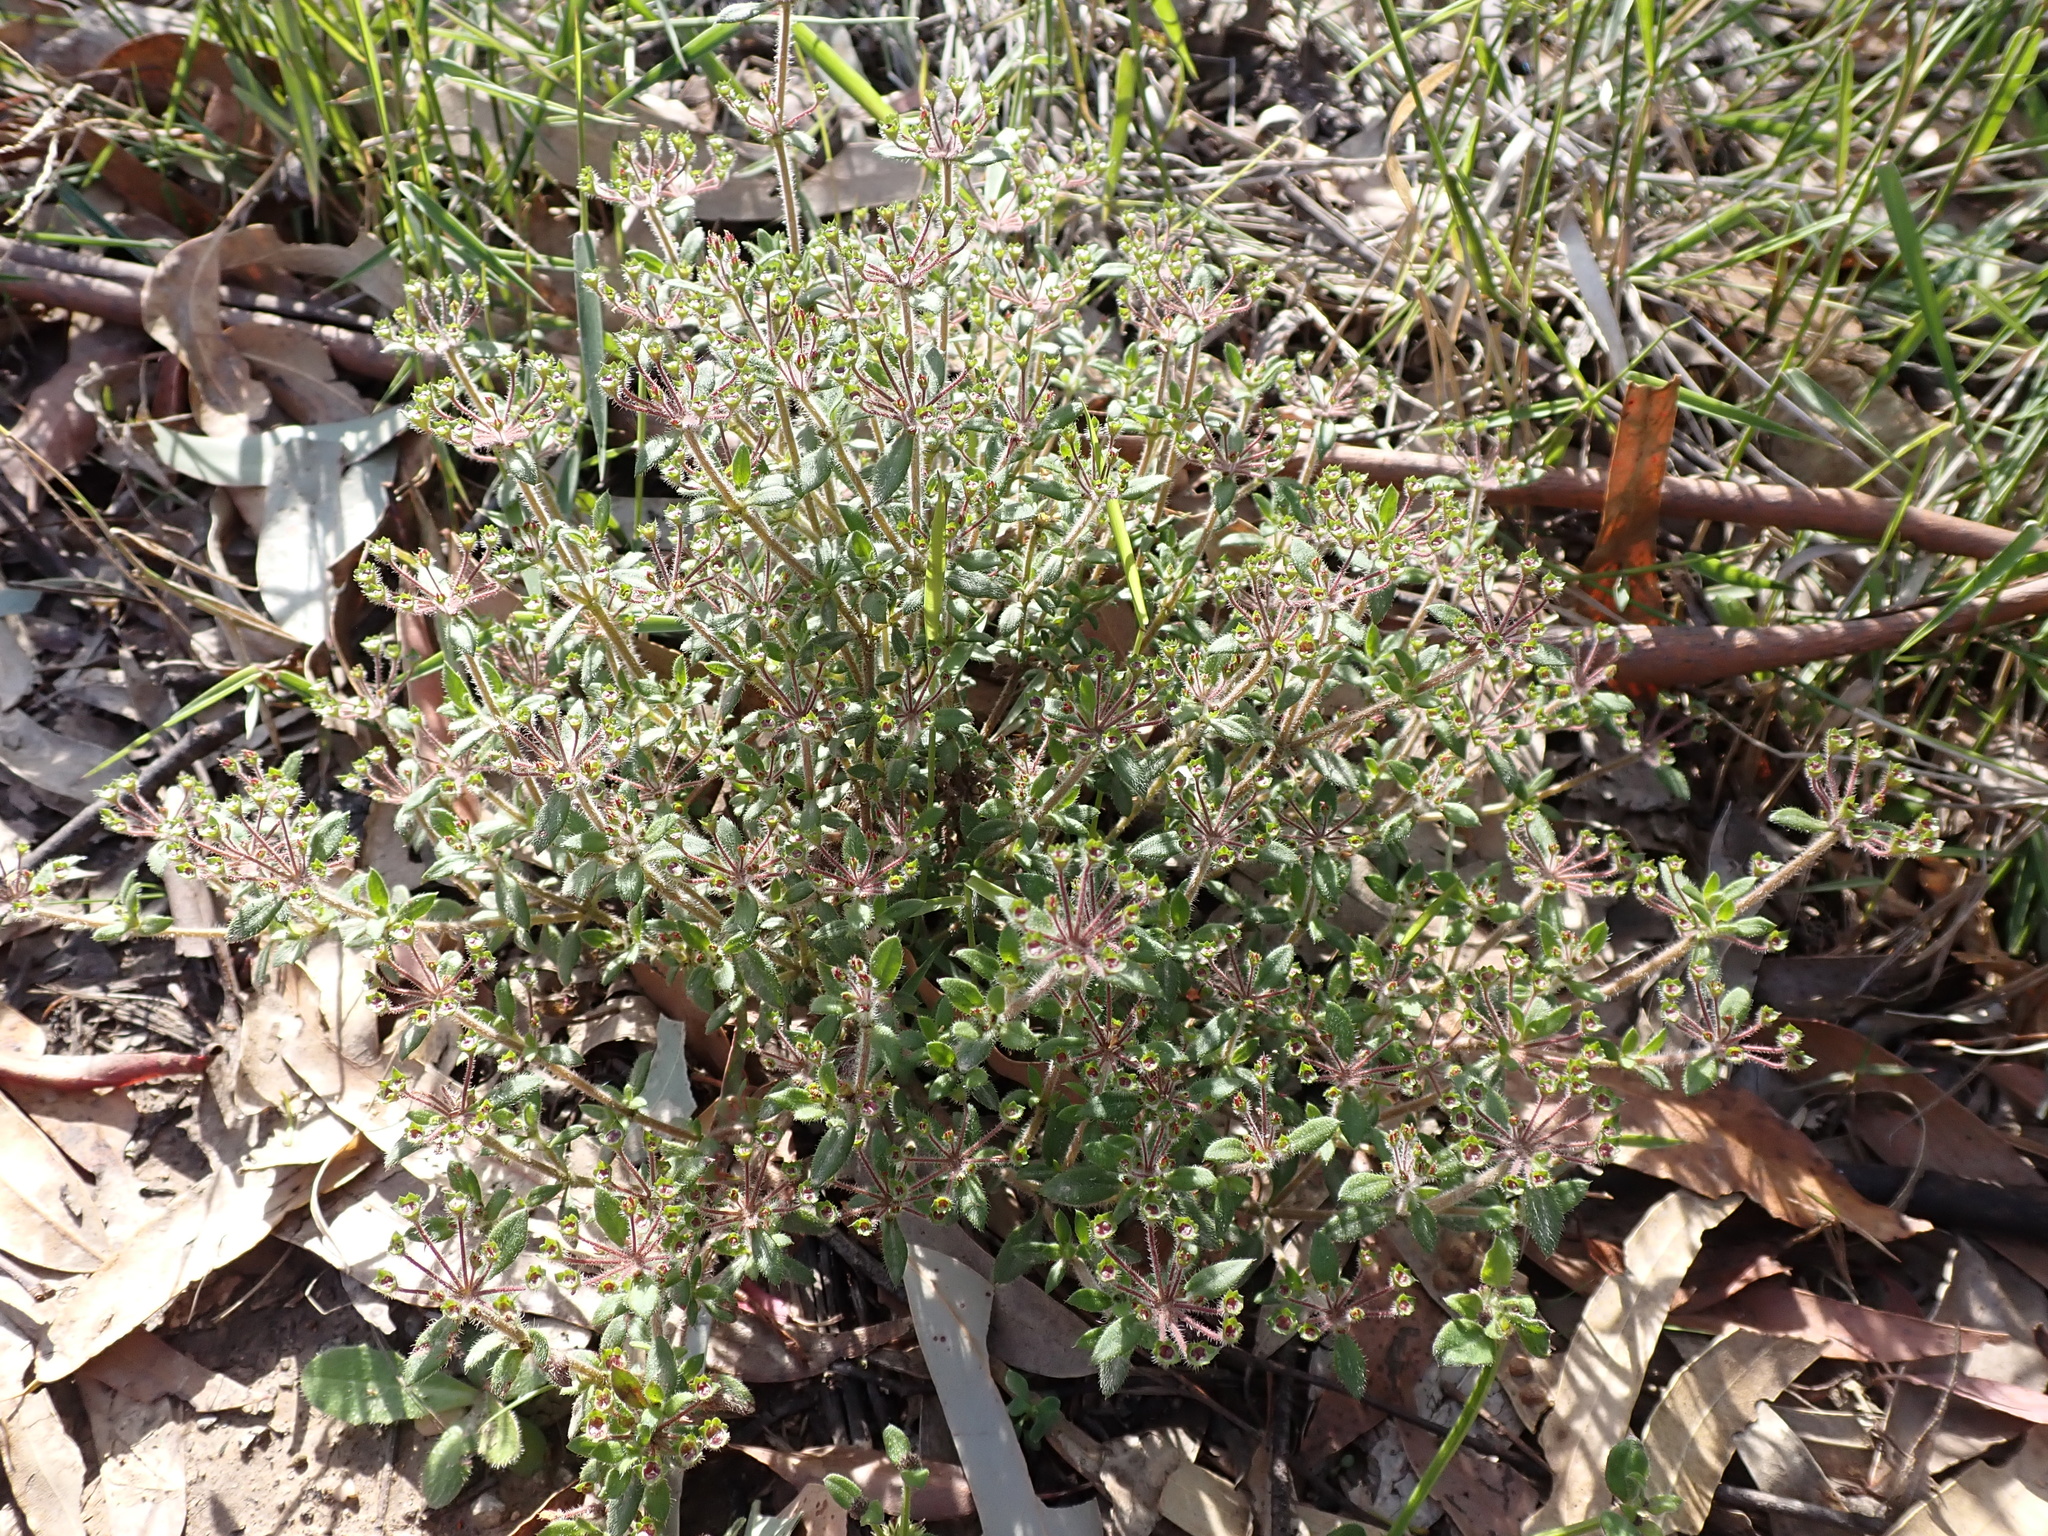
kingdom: Plantae
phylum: Tracheophyta
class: Magnoliopsida
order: Gentianales
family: Rubiaceae
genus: Pomax
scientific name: Pomax umbellata
